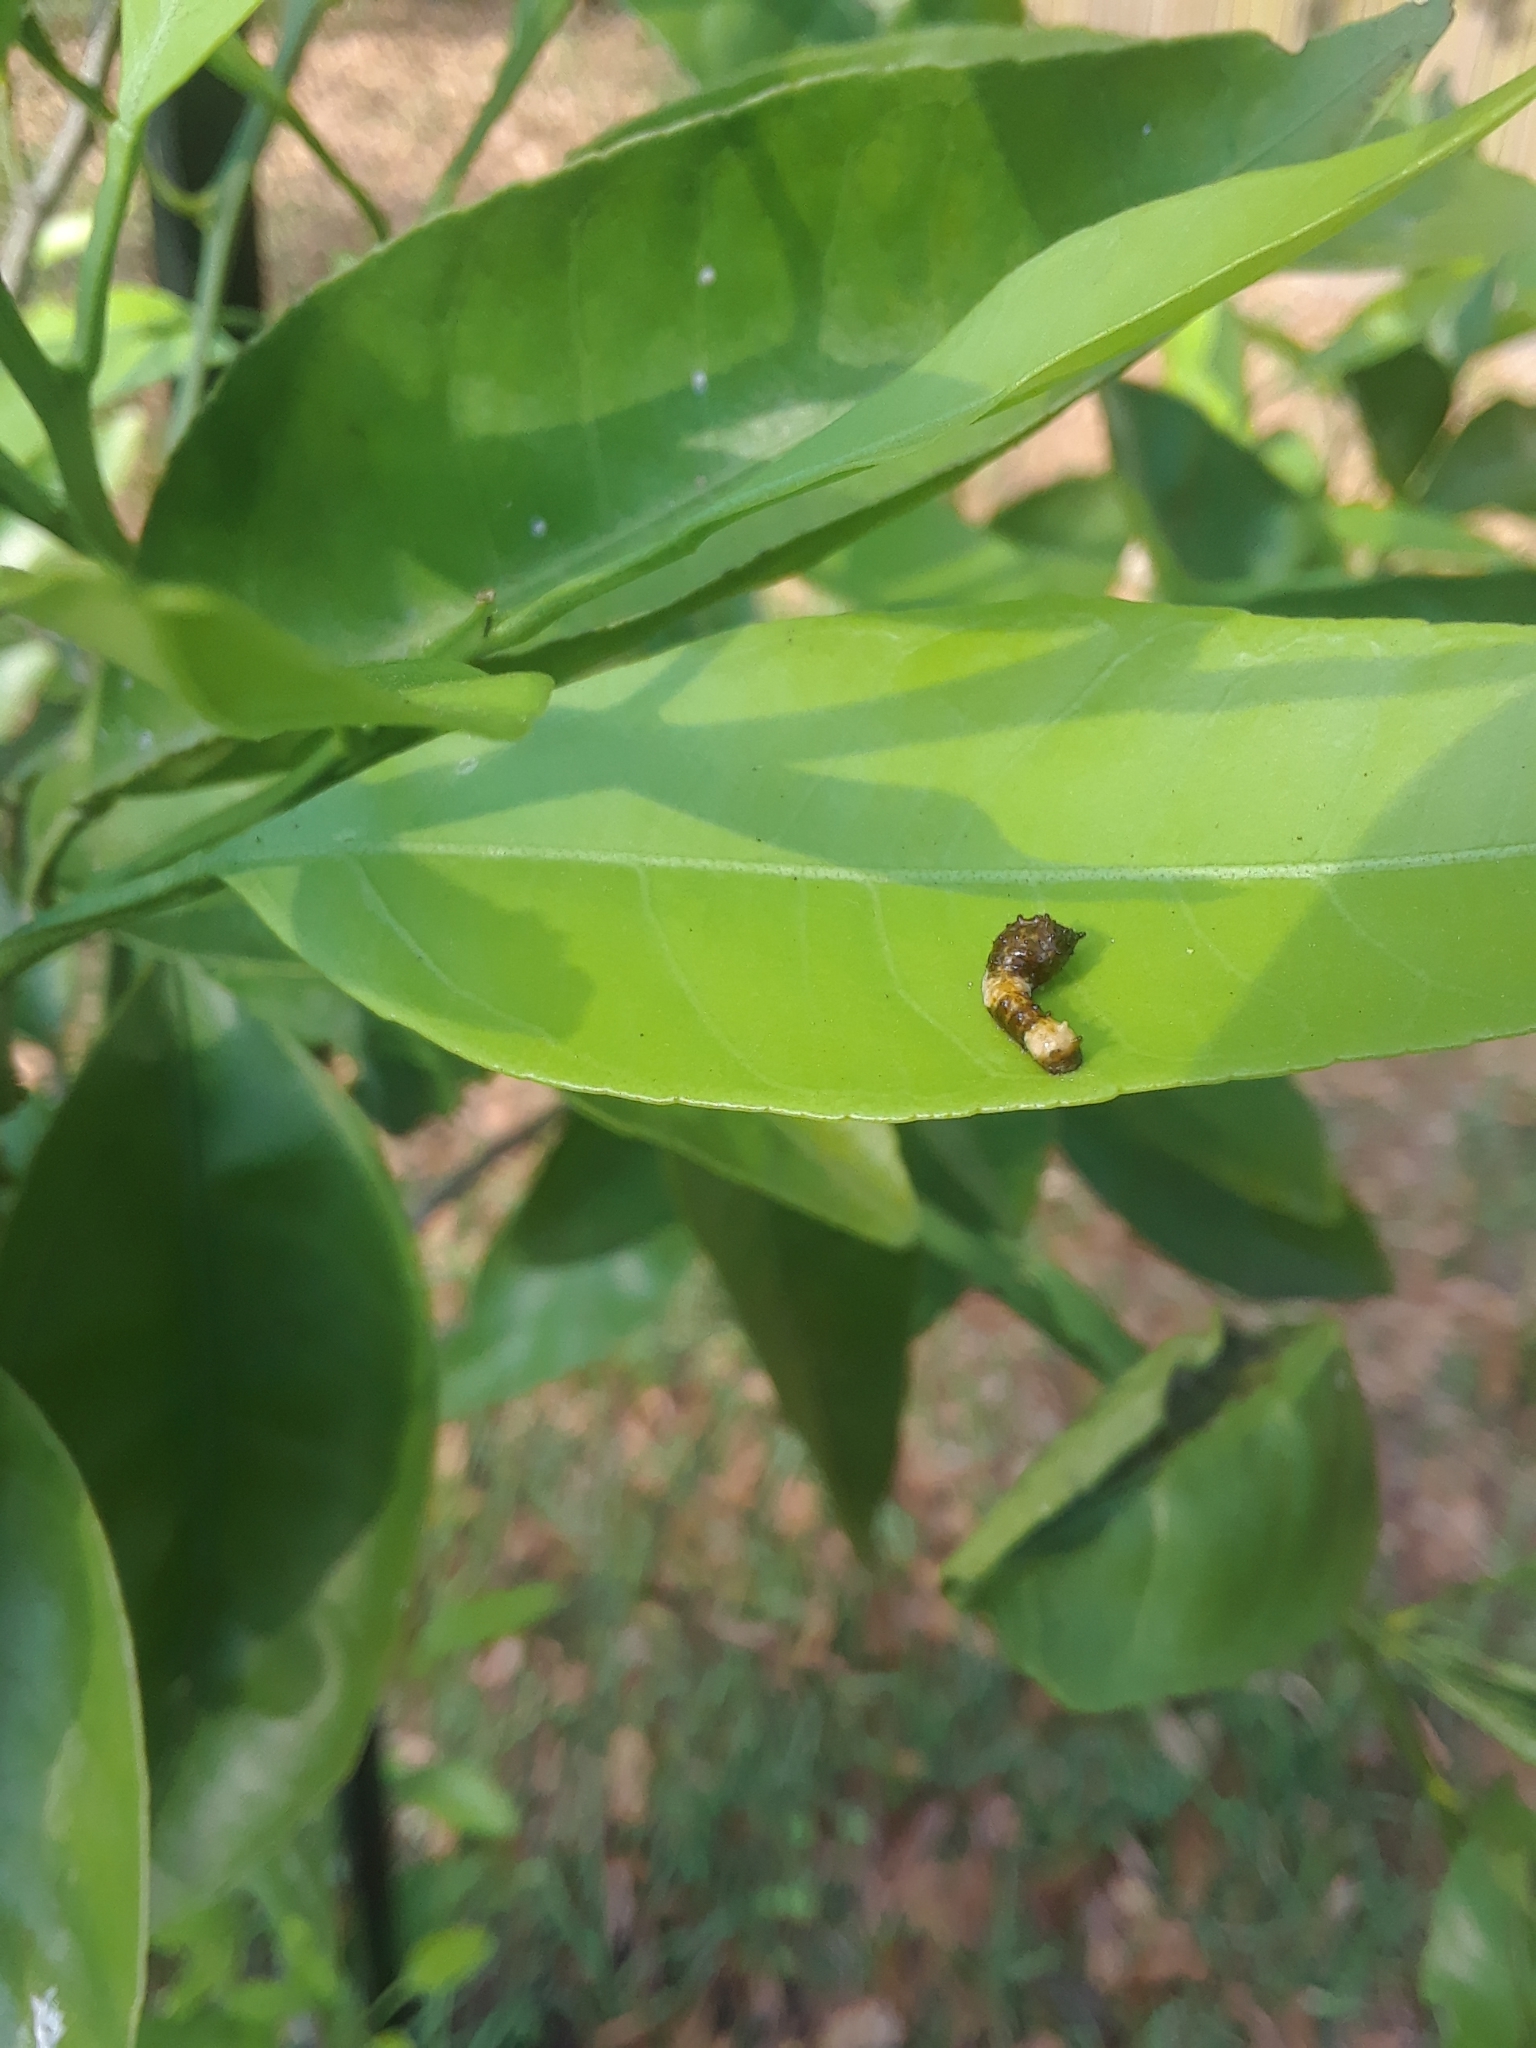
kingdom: Animalia
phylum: Arthropoda
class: Insecta
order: Lepidoptera
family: Papilionidae
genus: Papilio
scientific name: Papilio cresphontes
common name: Giant swallowtail
